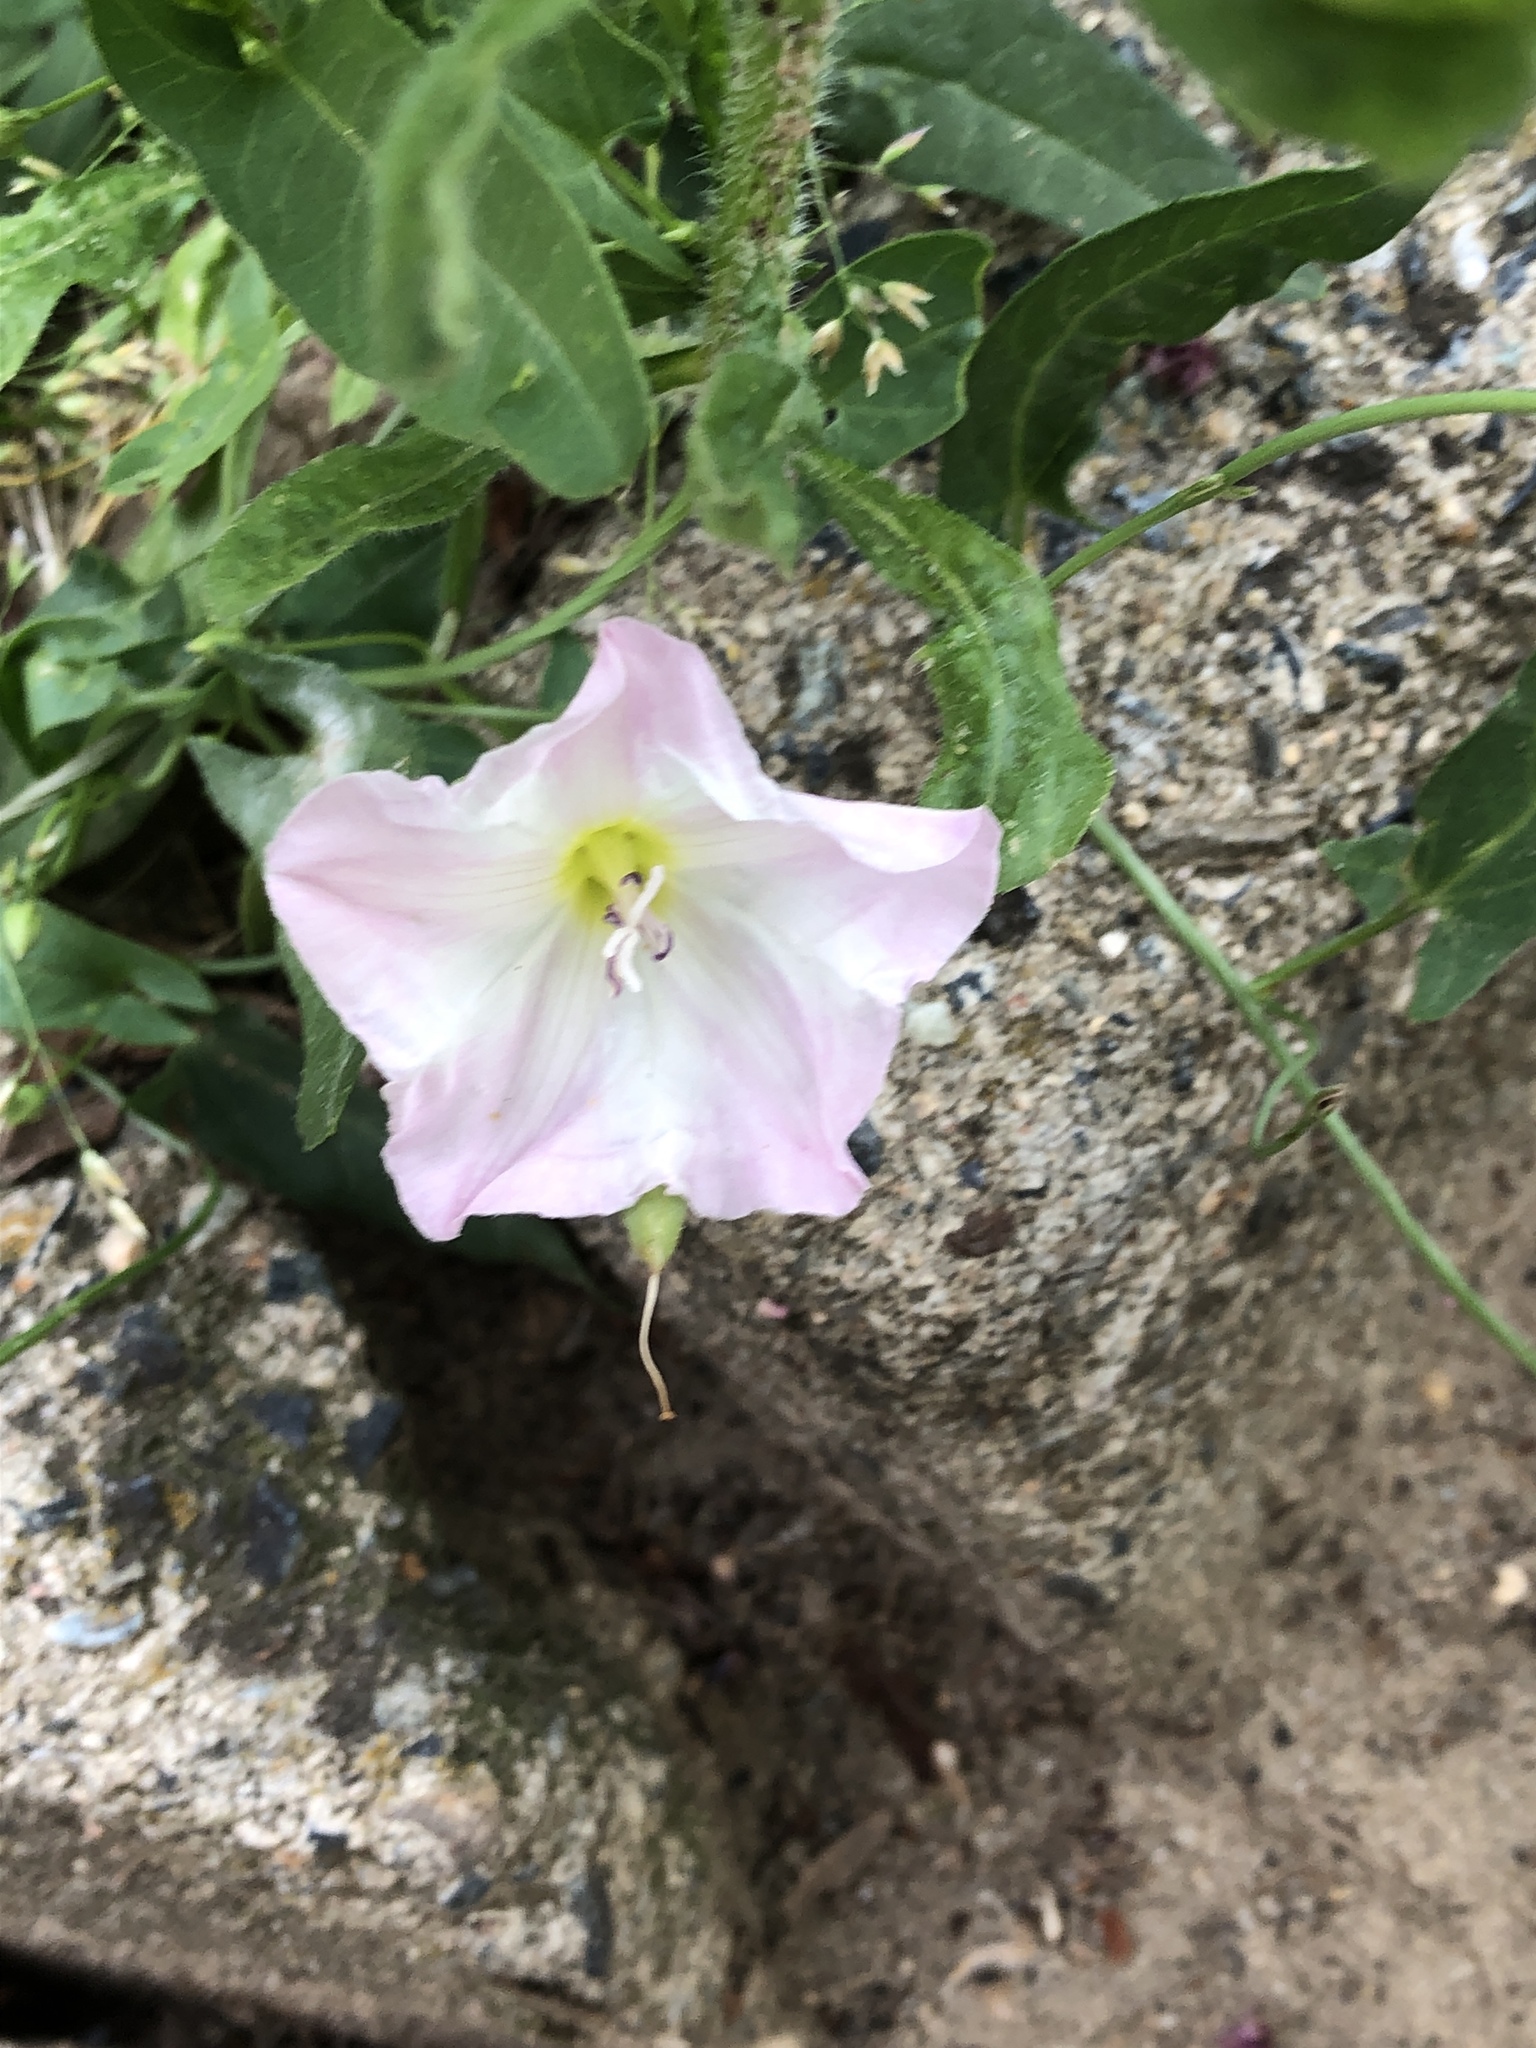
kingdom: Plantae
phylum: Tracheophyta
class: Magnoliopsida
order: Solanales
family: Convolvulaceae
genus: Convolvulus
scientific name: Convolvulus arvensis
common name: Field bindweed
